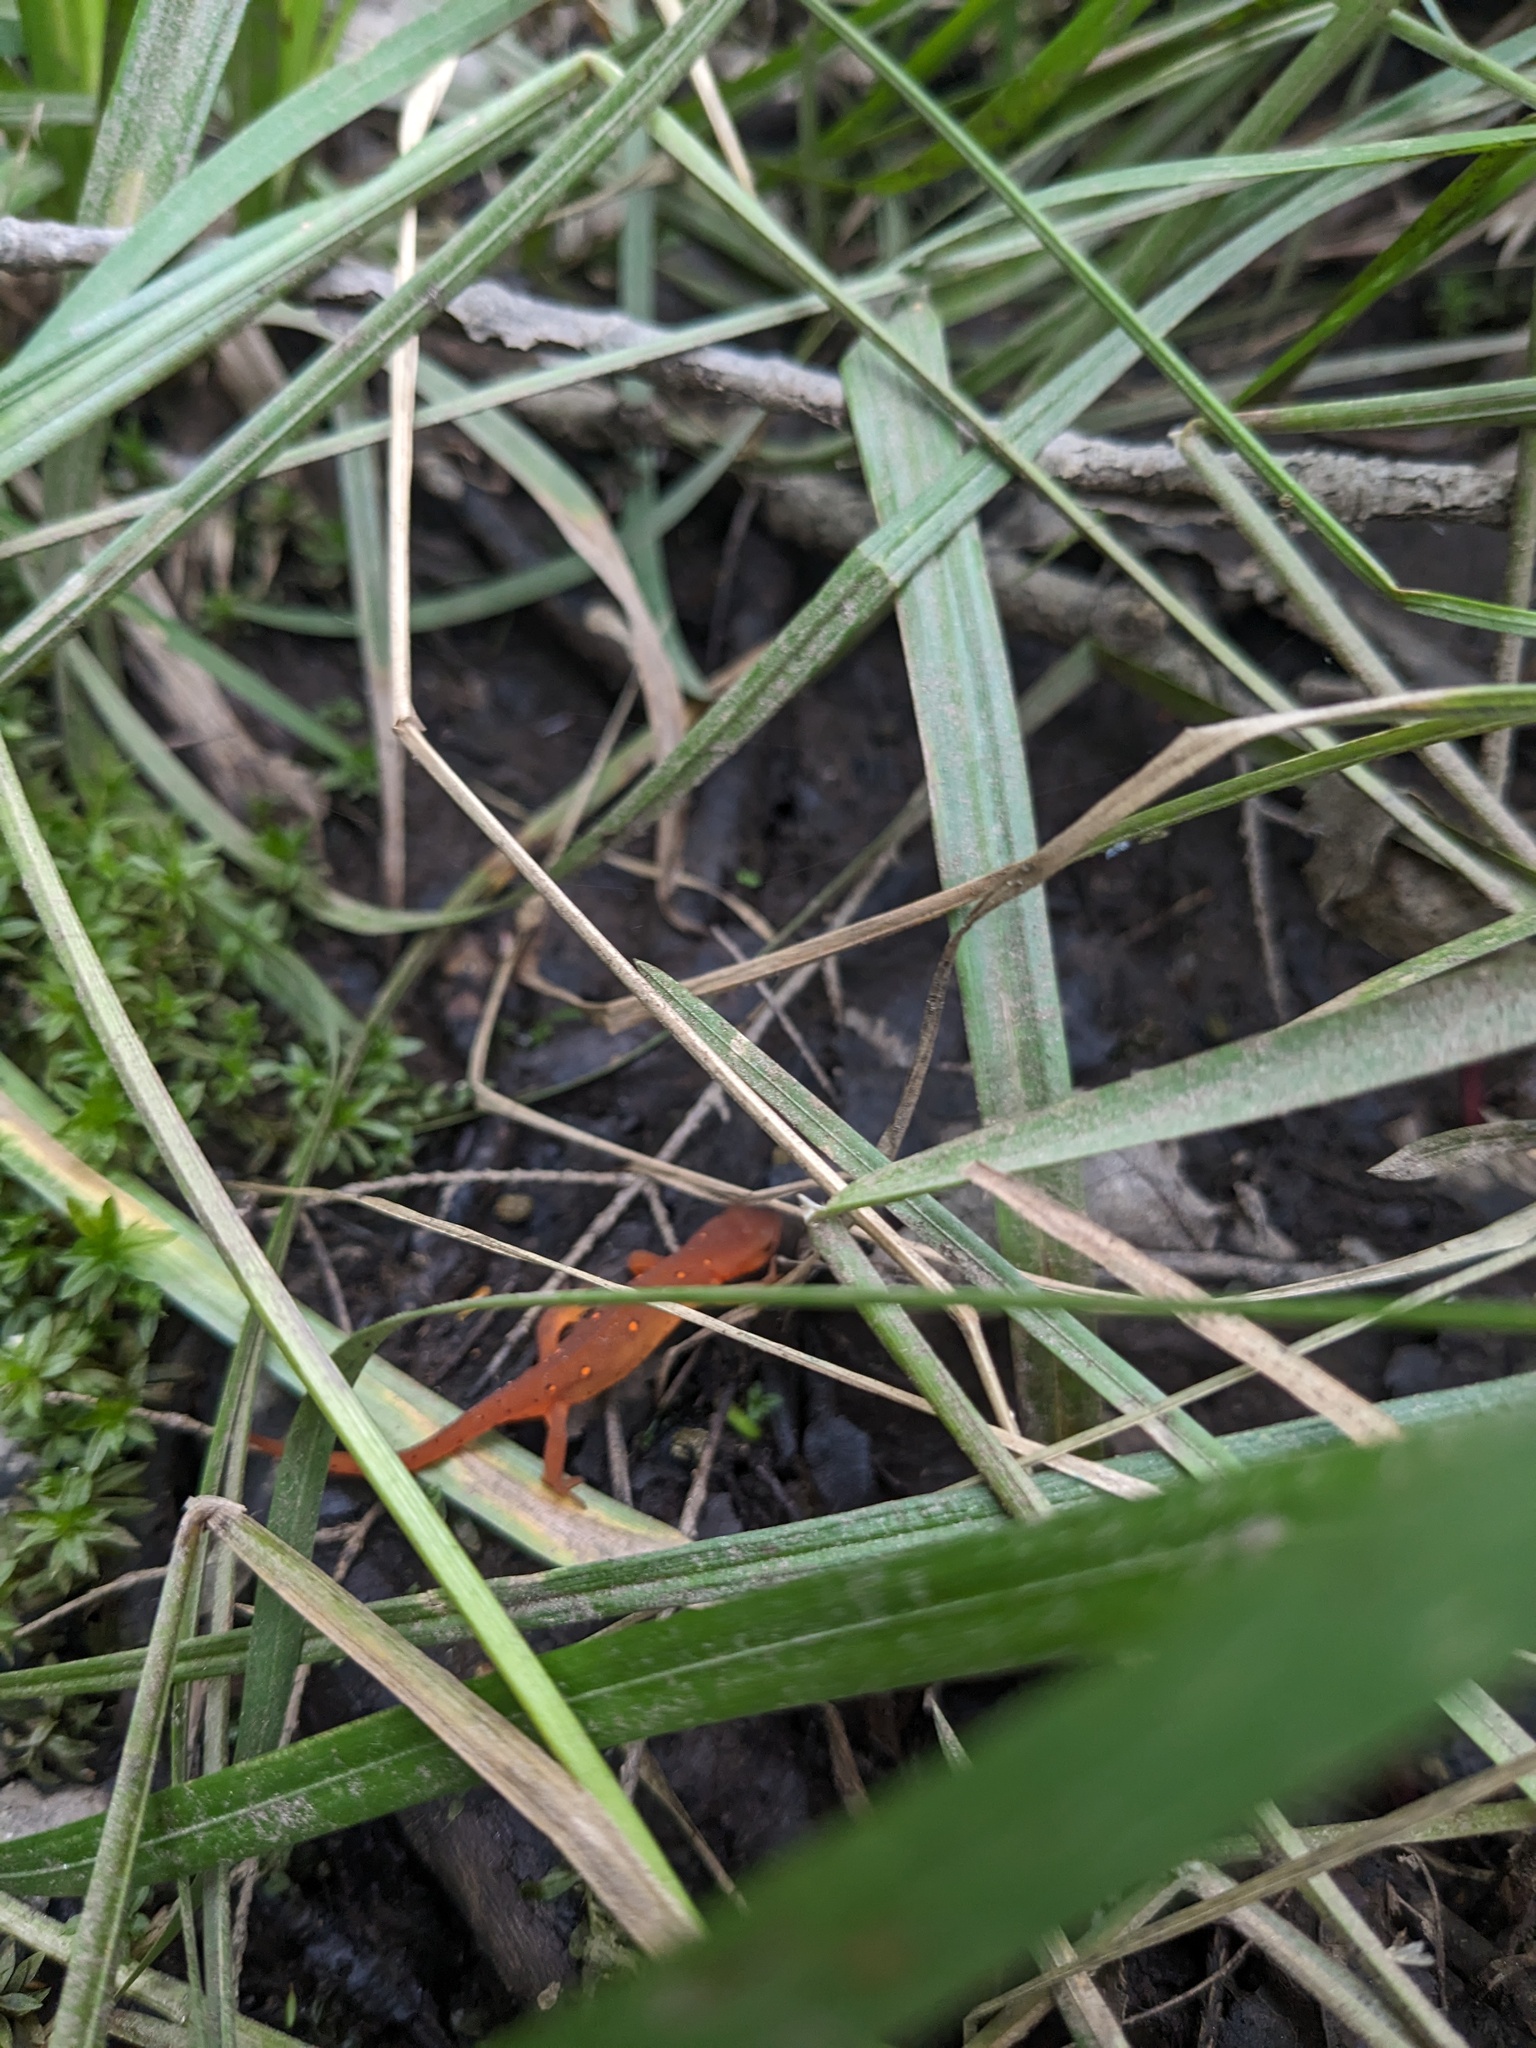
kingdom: Animalia
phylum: Chordata
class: Amphibia
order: Caudata
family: Salamandridae
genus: Notophthalmus
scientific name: Notophthalmus viridescens
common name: Eastern newt
